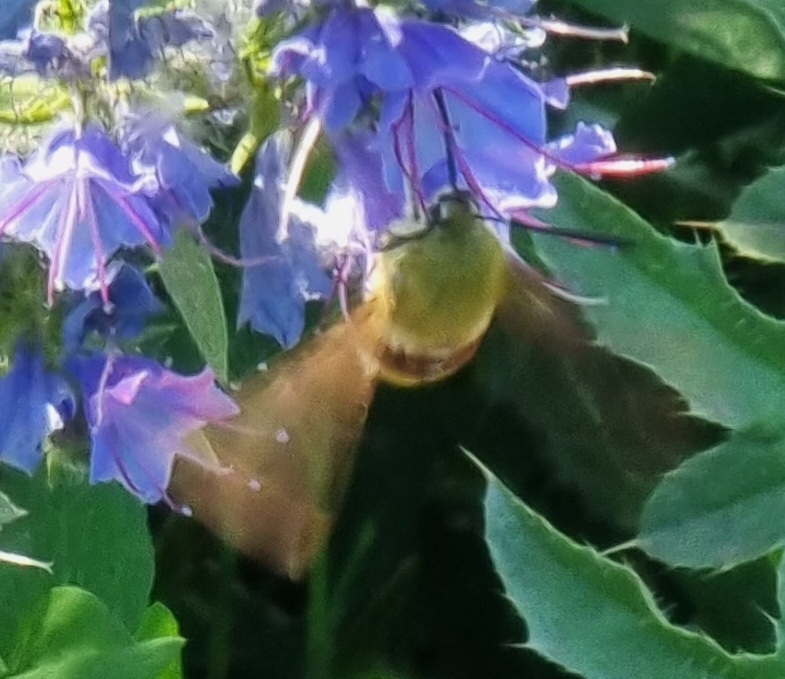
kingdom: Animalia
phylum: Arthropoda
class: Insecta
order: Lepidoptera
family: Sphingidae
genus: Hemaris
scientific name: Hemaris fuciformis
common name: Broad-bordered bee hawk-moth
